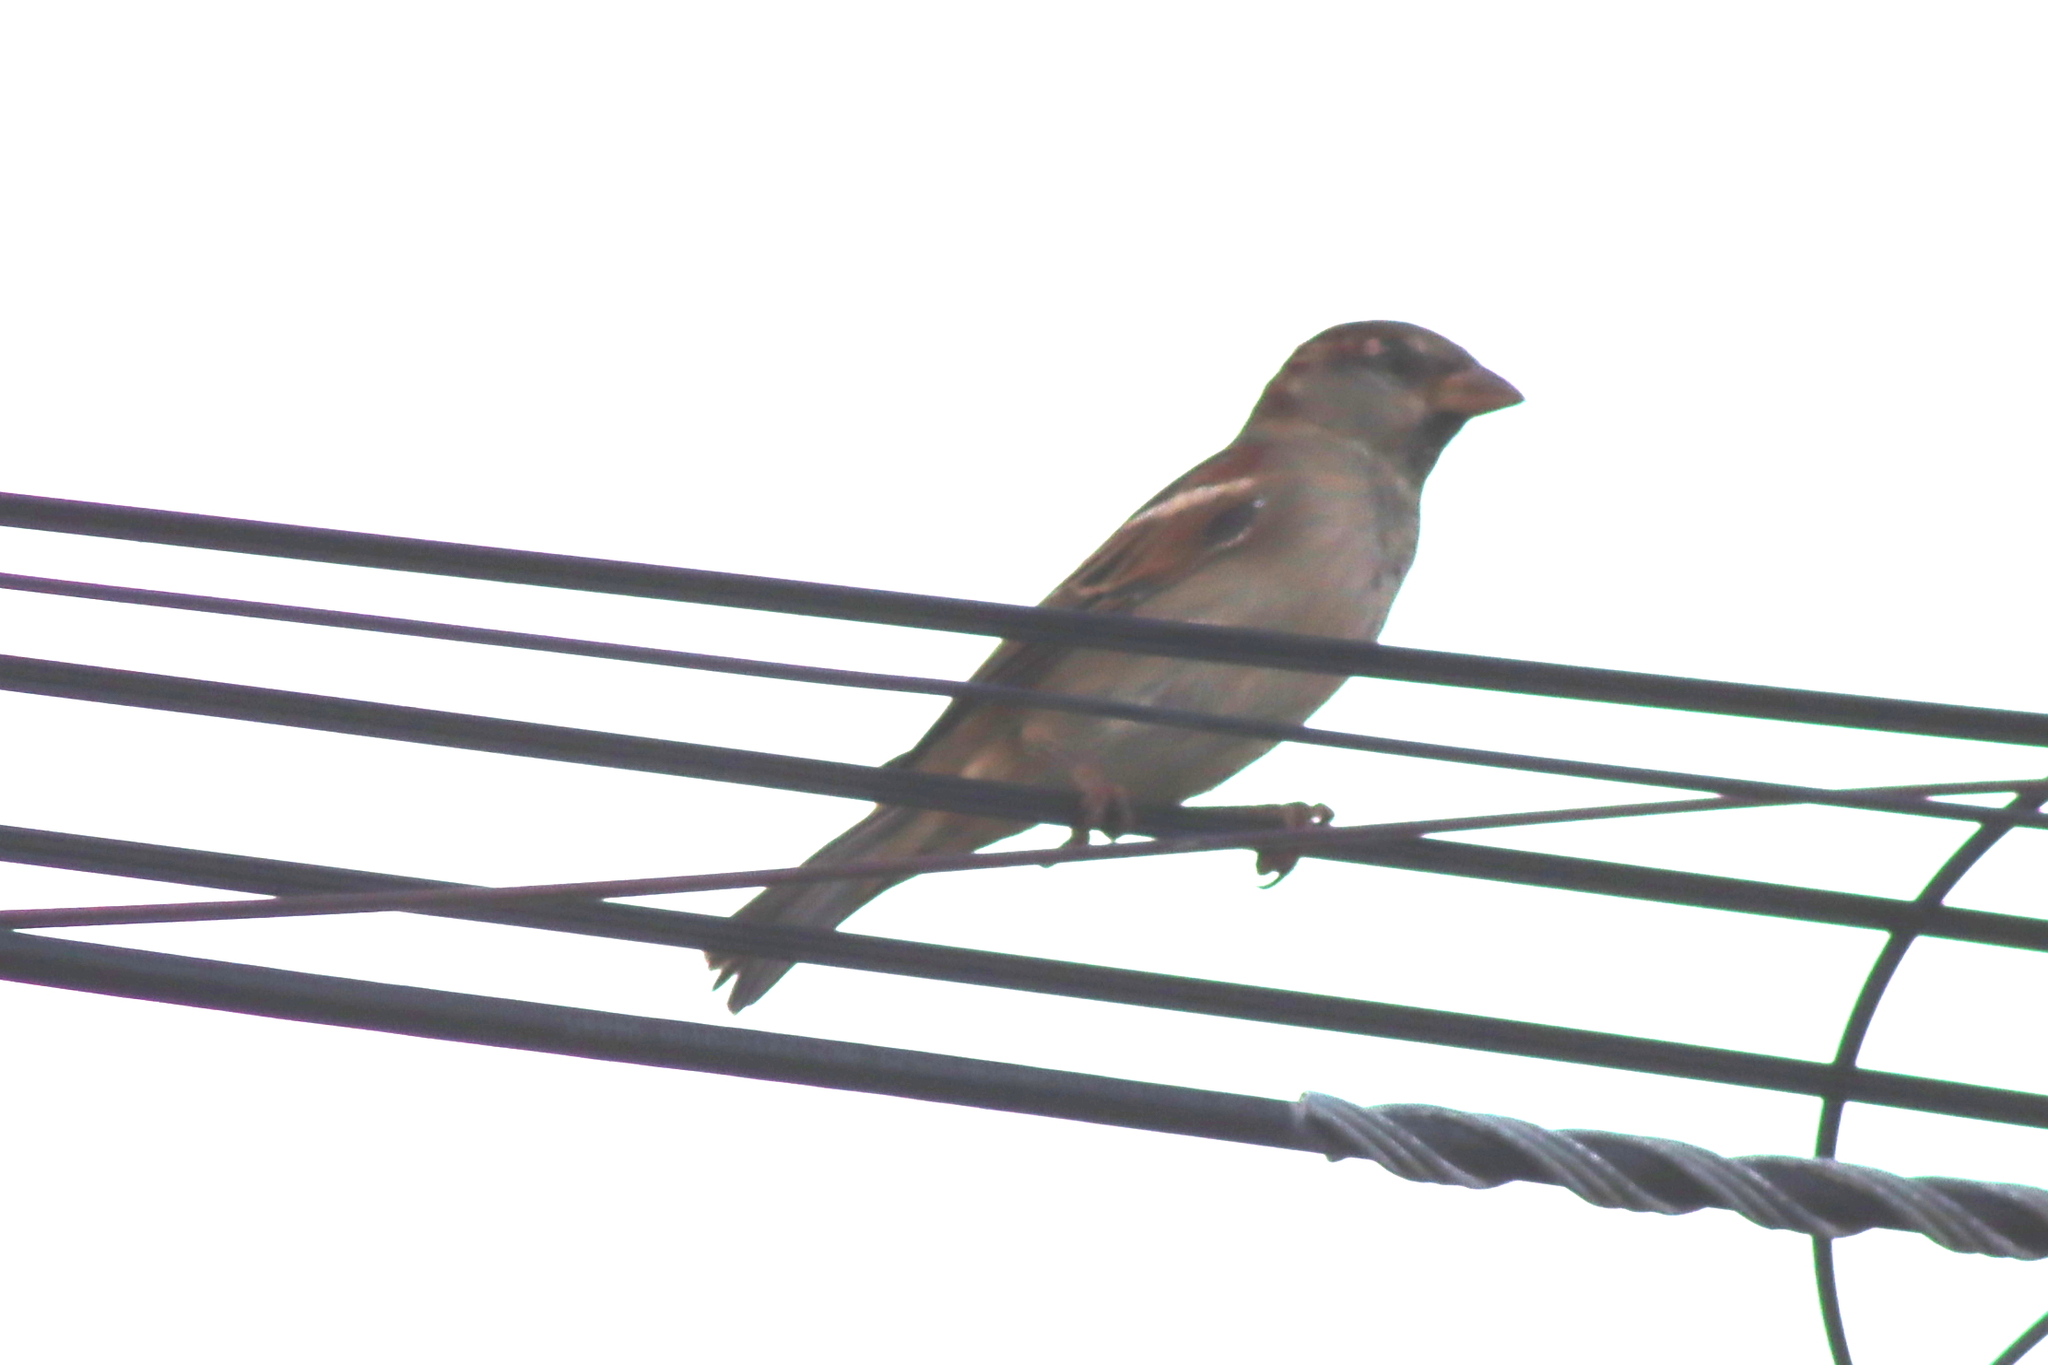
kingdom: Animalia
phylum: Chordata
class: Aves
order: Passeriformes
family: Passeridae
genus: Passer
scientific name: Passer domesticus
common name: House sparrow
